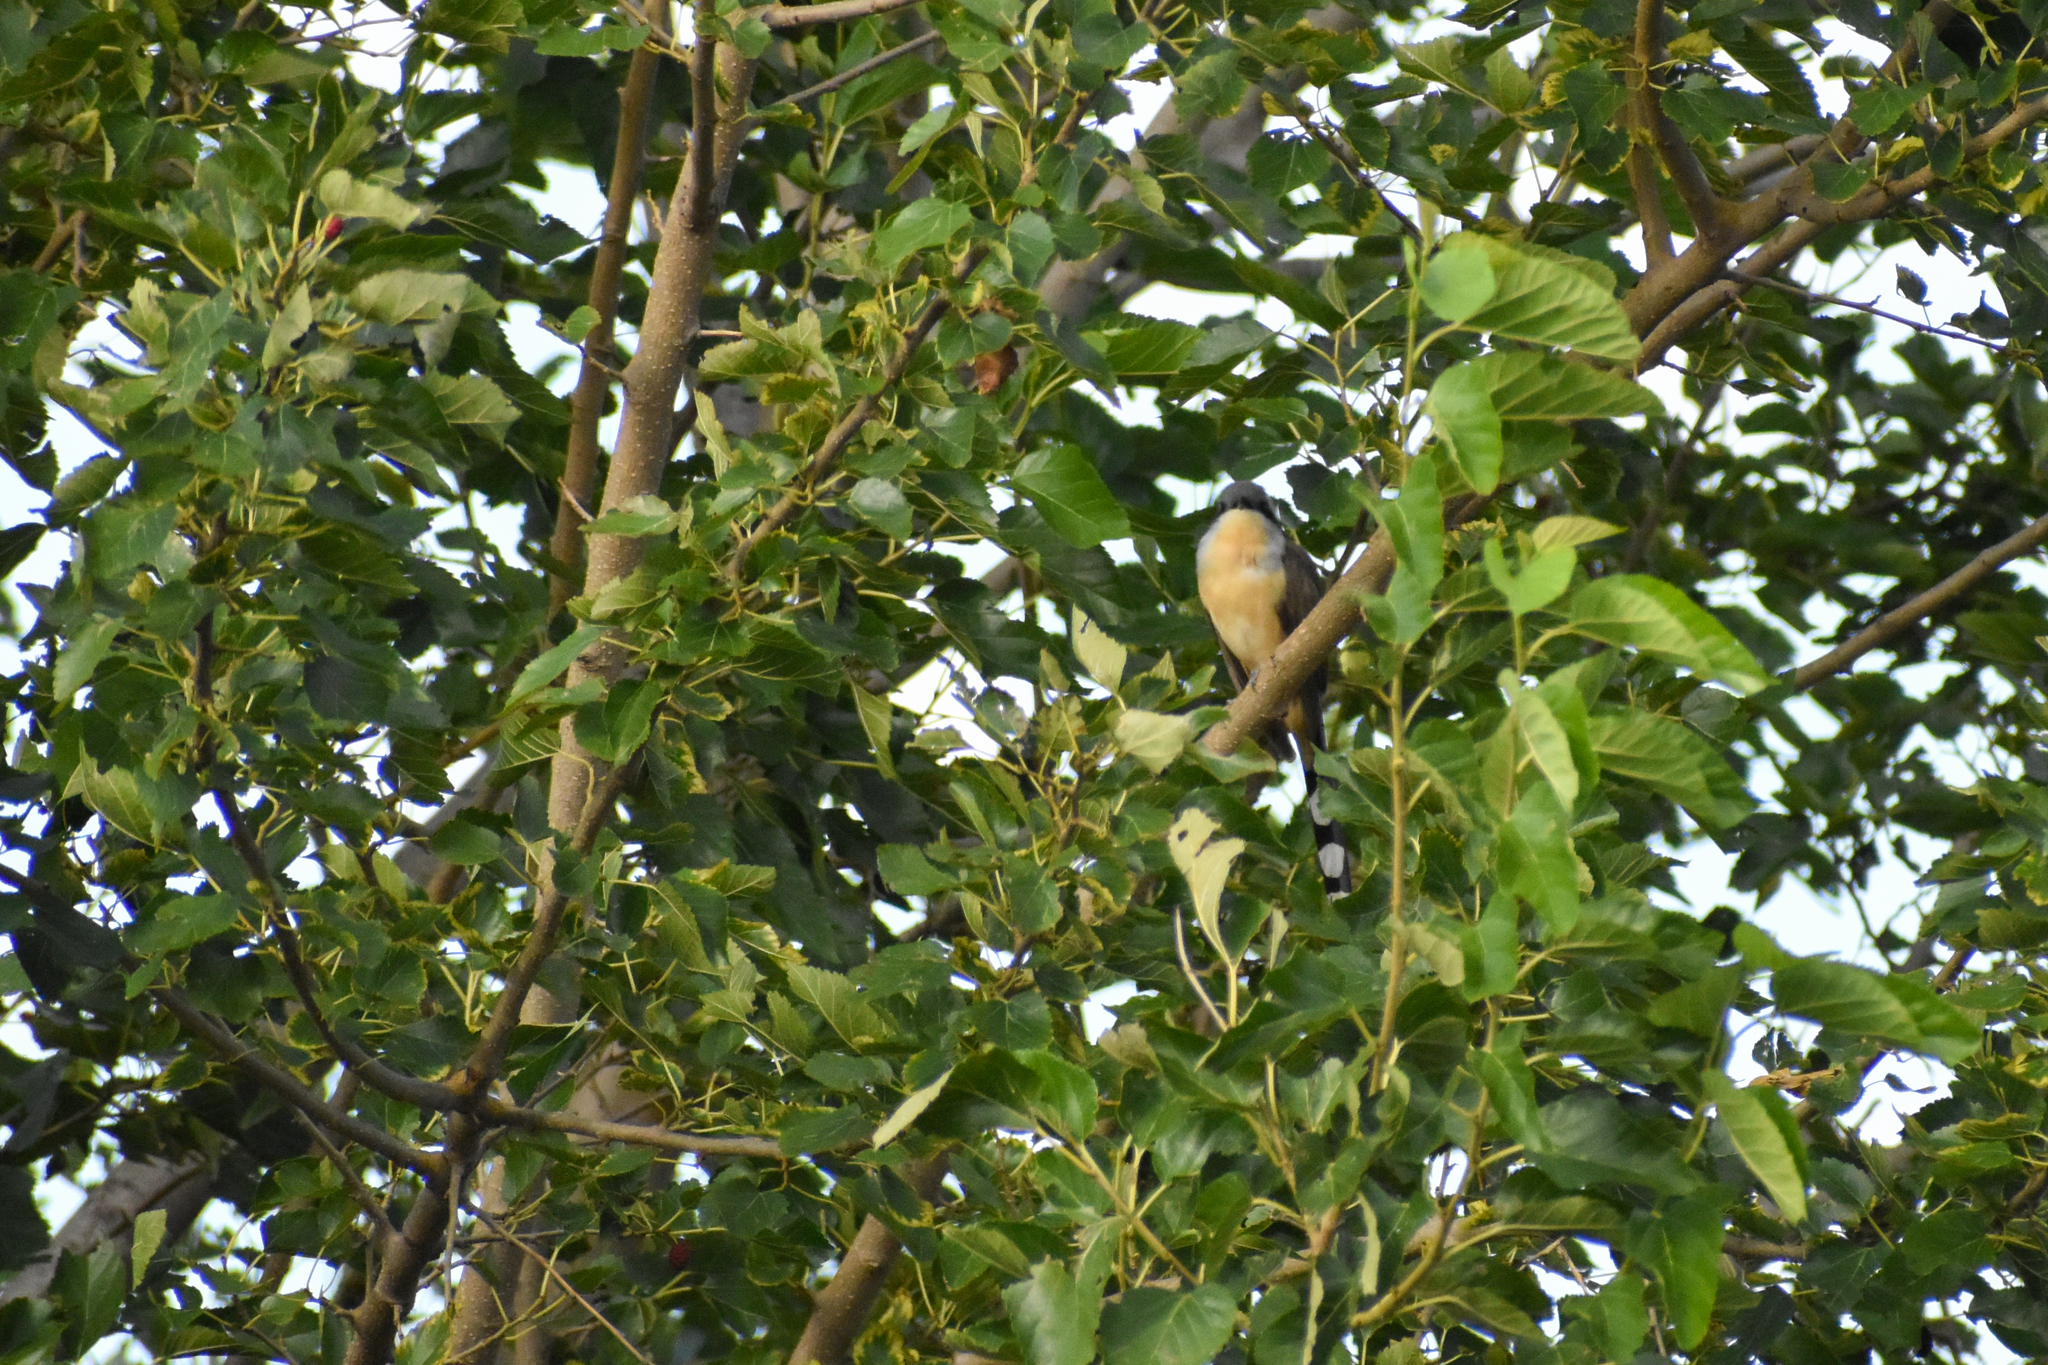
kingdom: Animalia
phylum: Chordata
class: Aves
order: Cuculiformes
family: Cuculidae
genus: Coccyzus
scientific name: Coccyzus melacoryphus
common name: Dark-billed cuckoo
